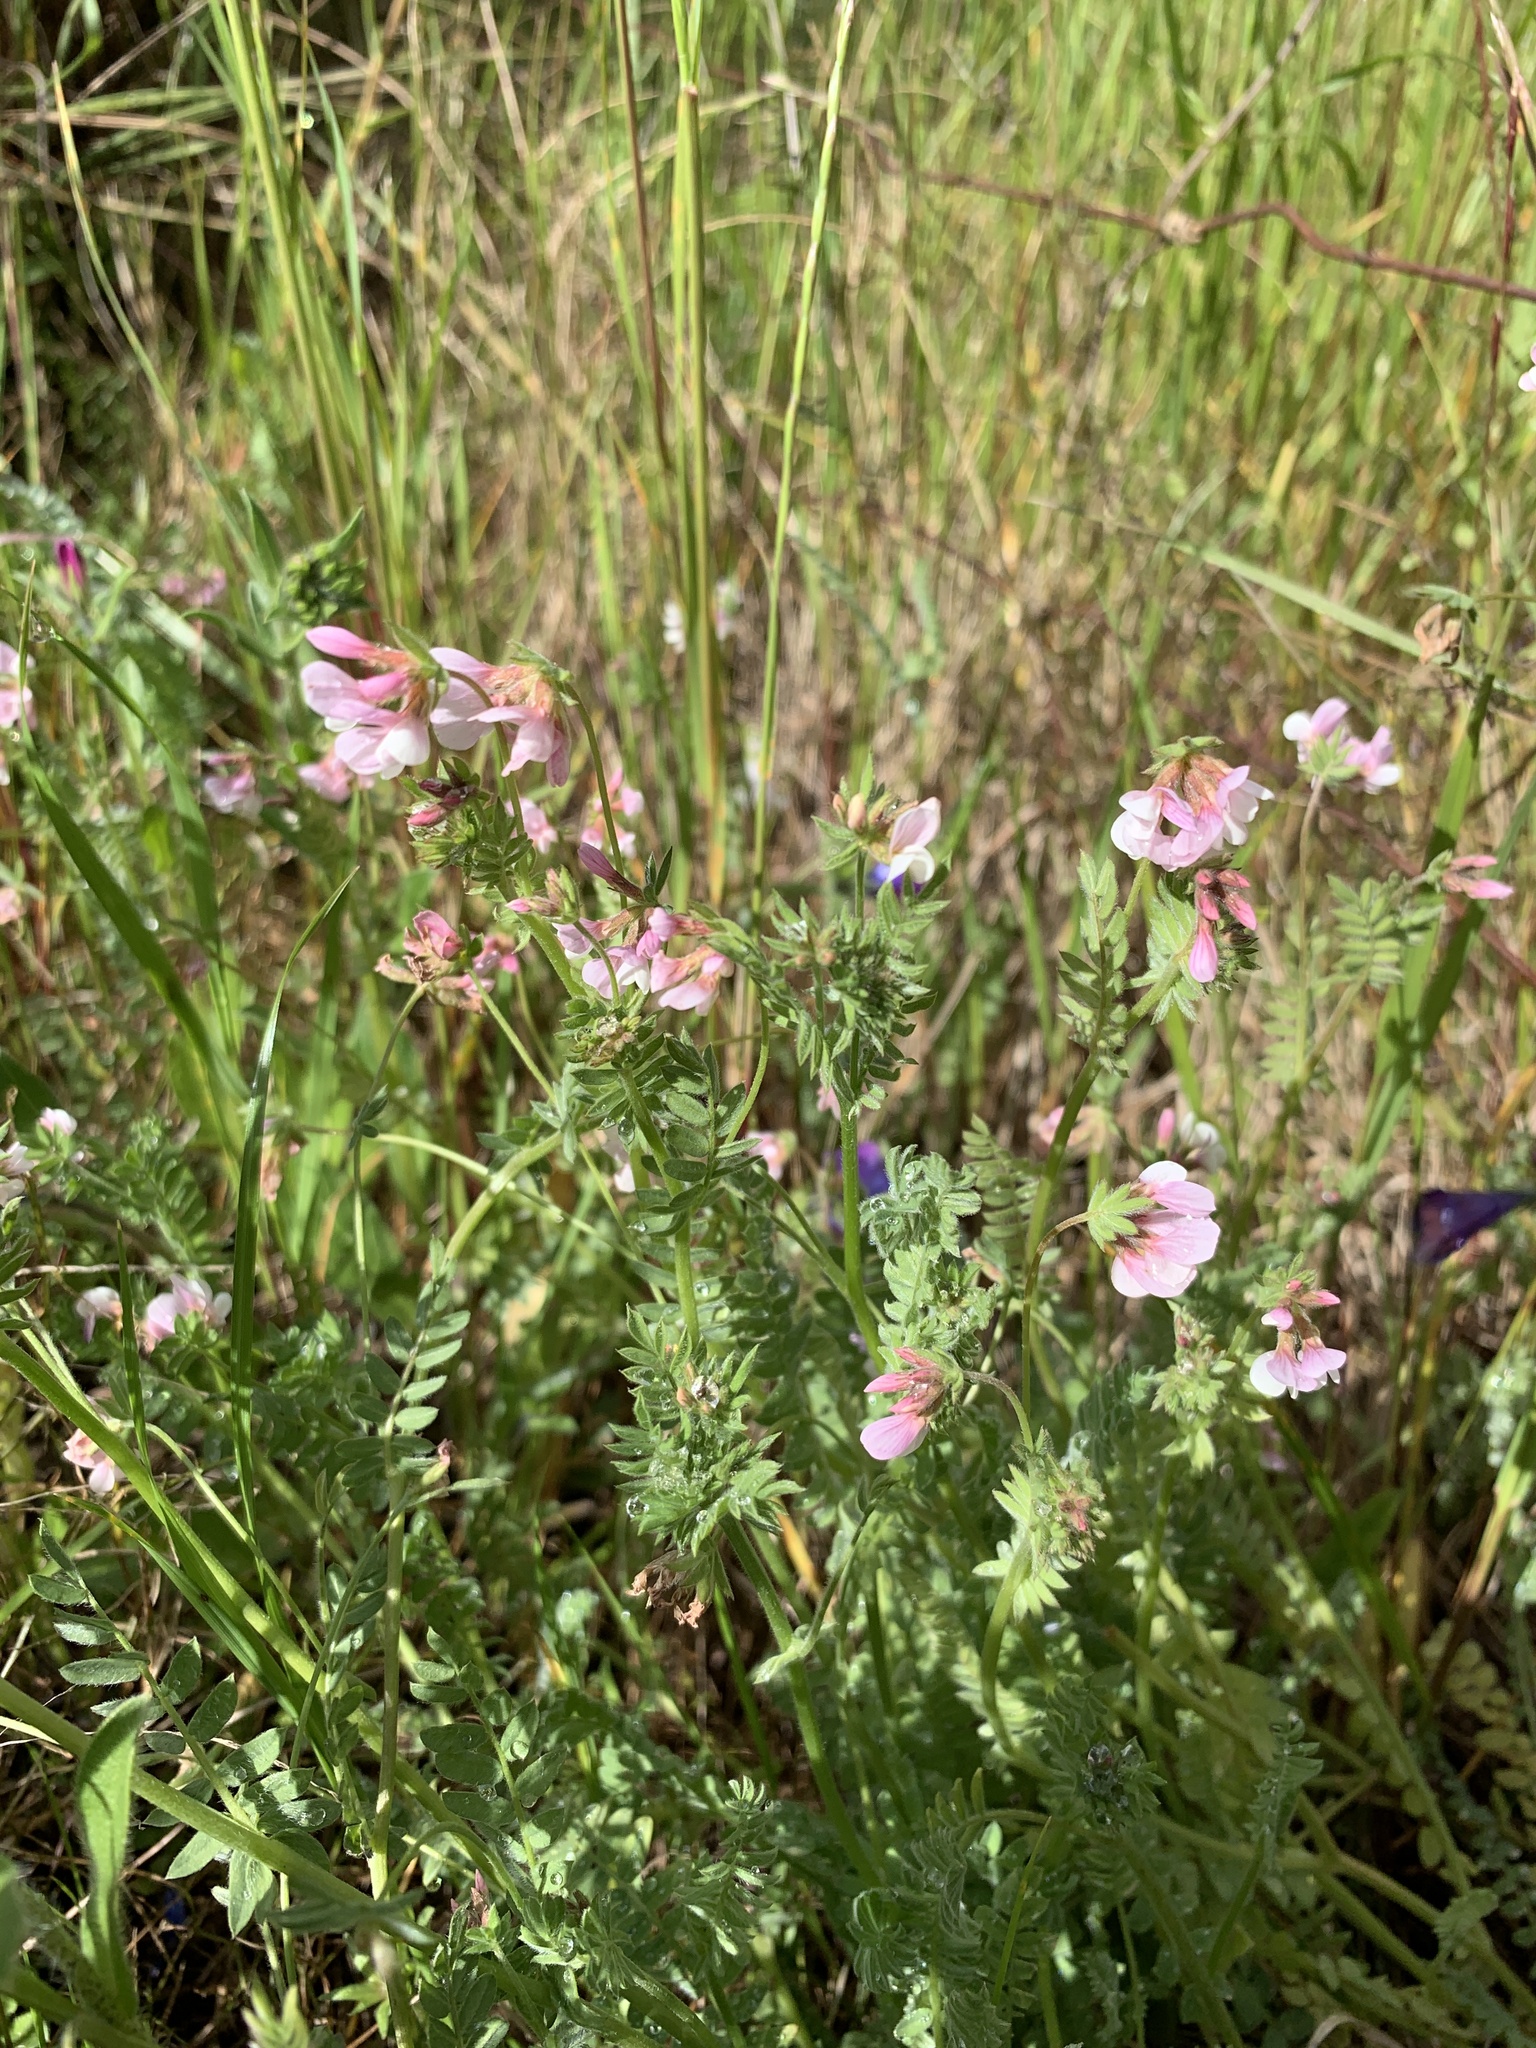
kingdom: Plantae
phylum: Tracheophyta
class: Magnoliopsida
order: Fabales
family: Fabaceae
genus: Ornithopus
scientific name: Ornithopus sativus
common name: Serradella
